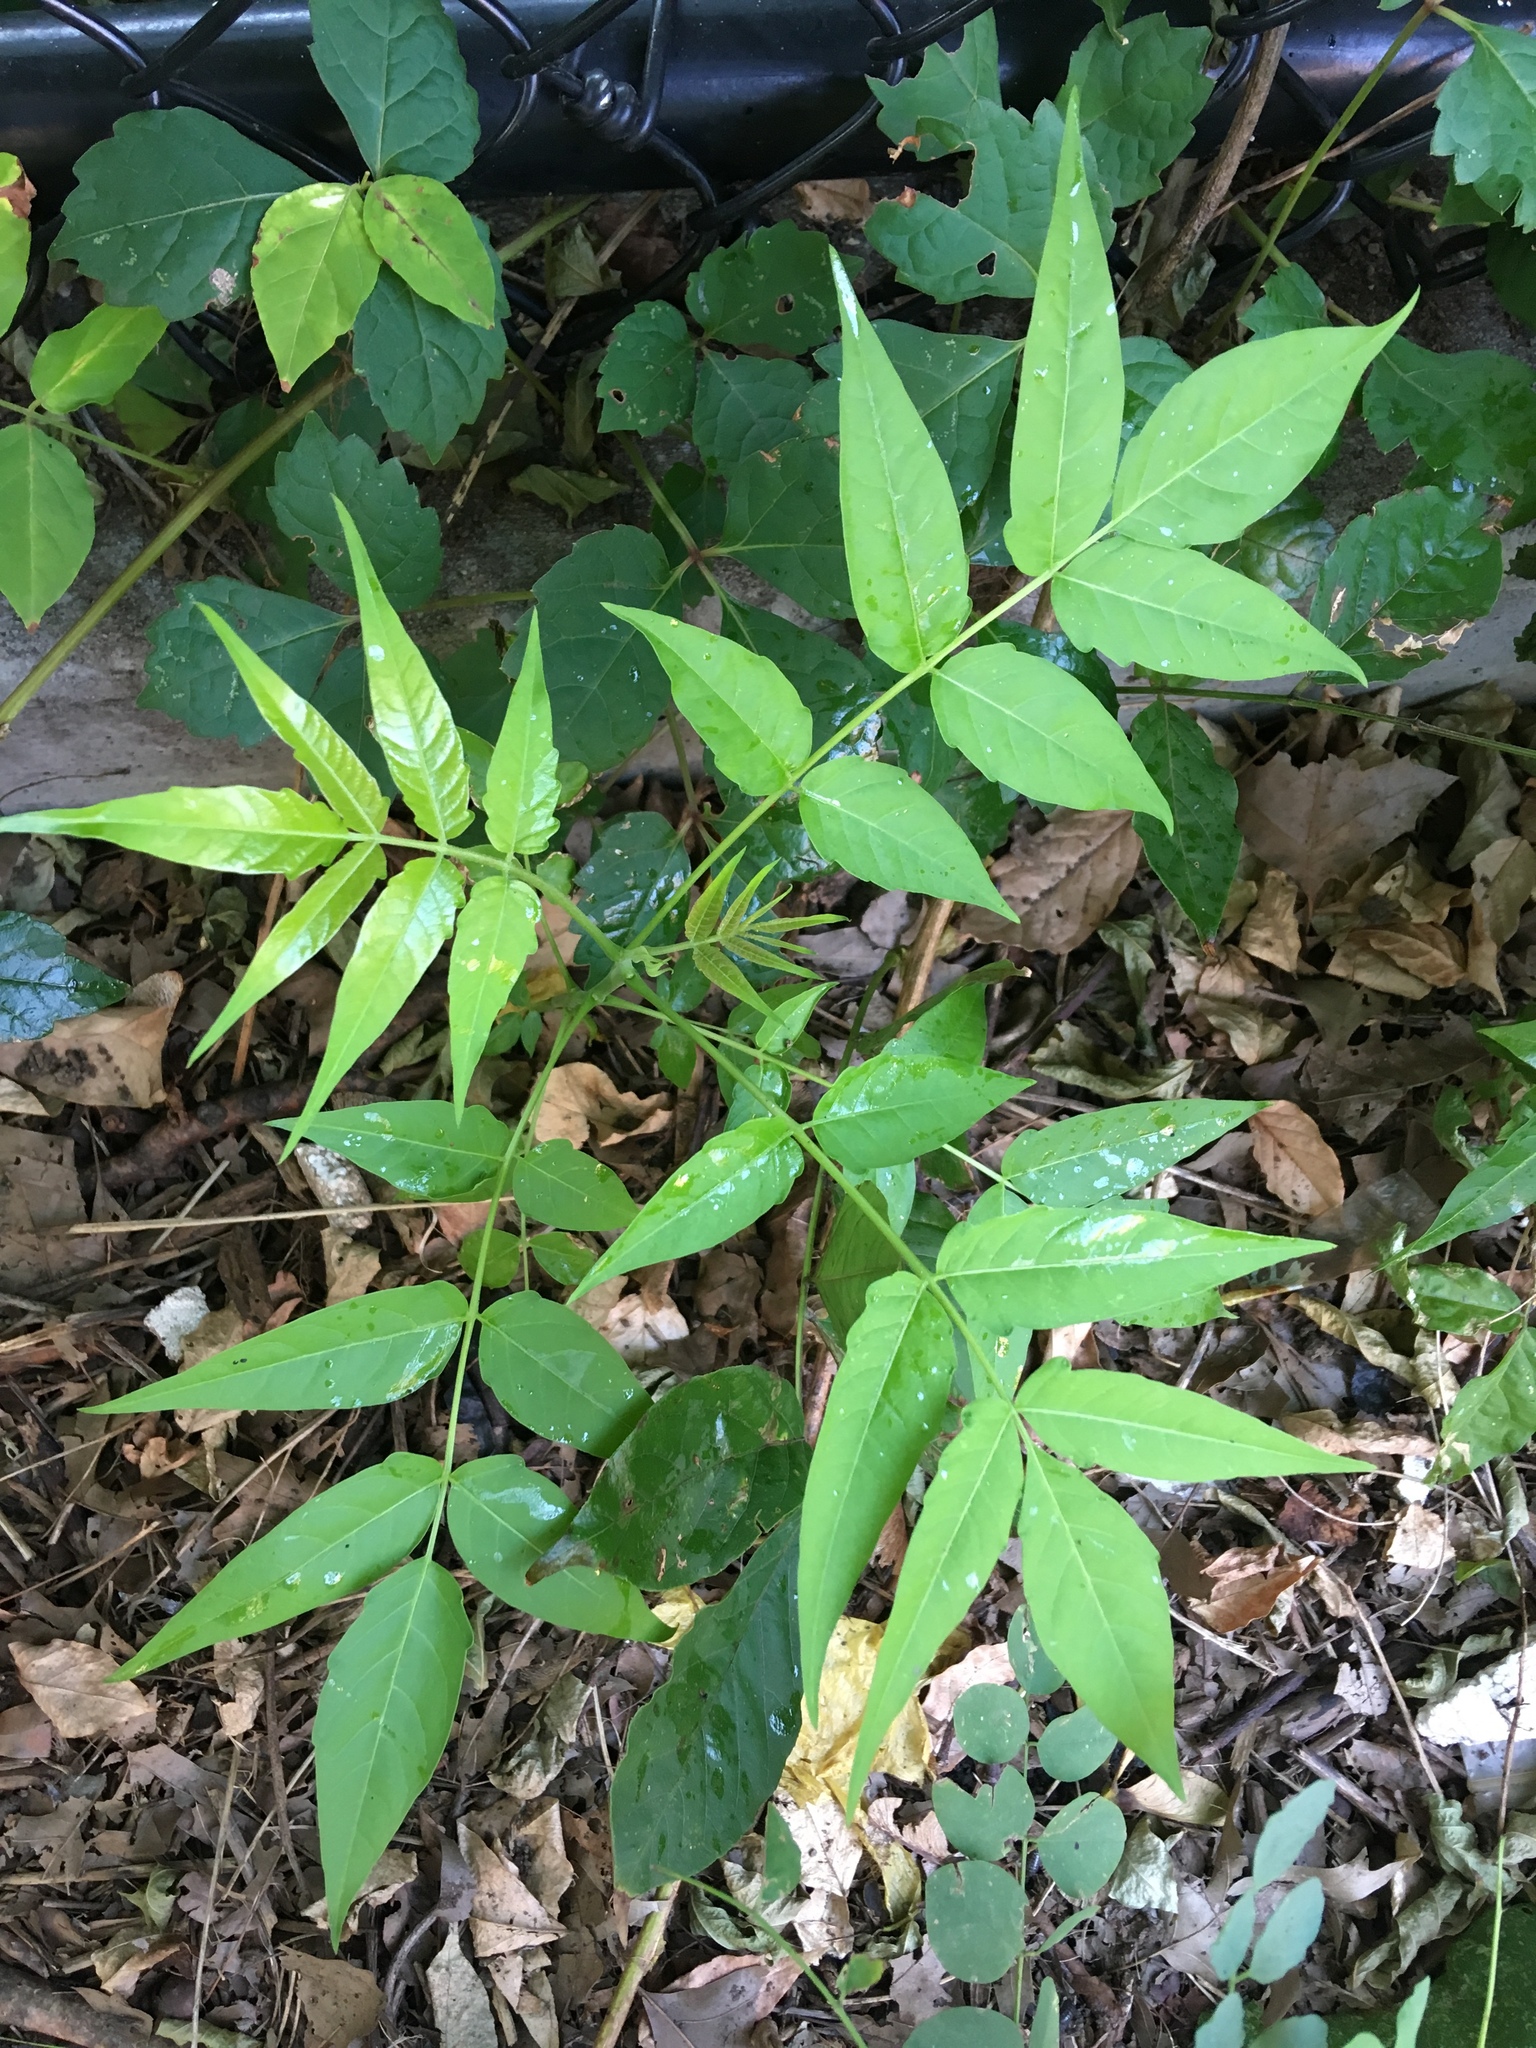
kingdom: Plantae
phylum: Tracheophyta
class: Magnoliopsida
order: Sapindales
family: Simaroubaceae
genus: Ailanthus
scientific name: Ailanthus altissima
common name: Tree-of-heaven
